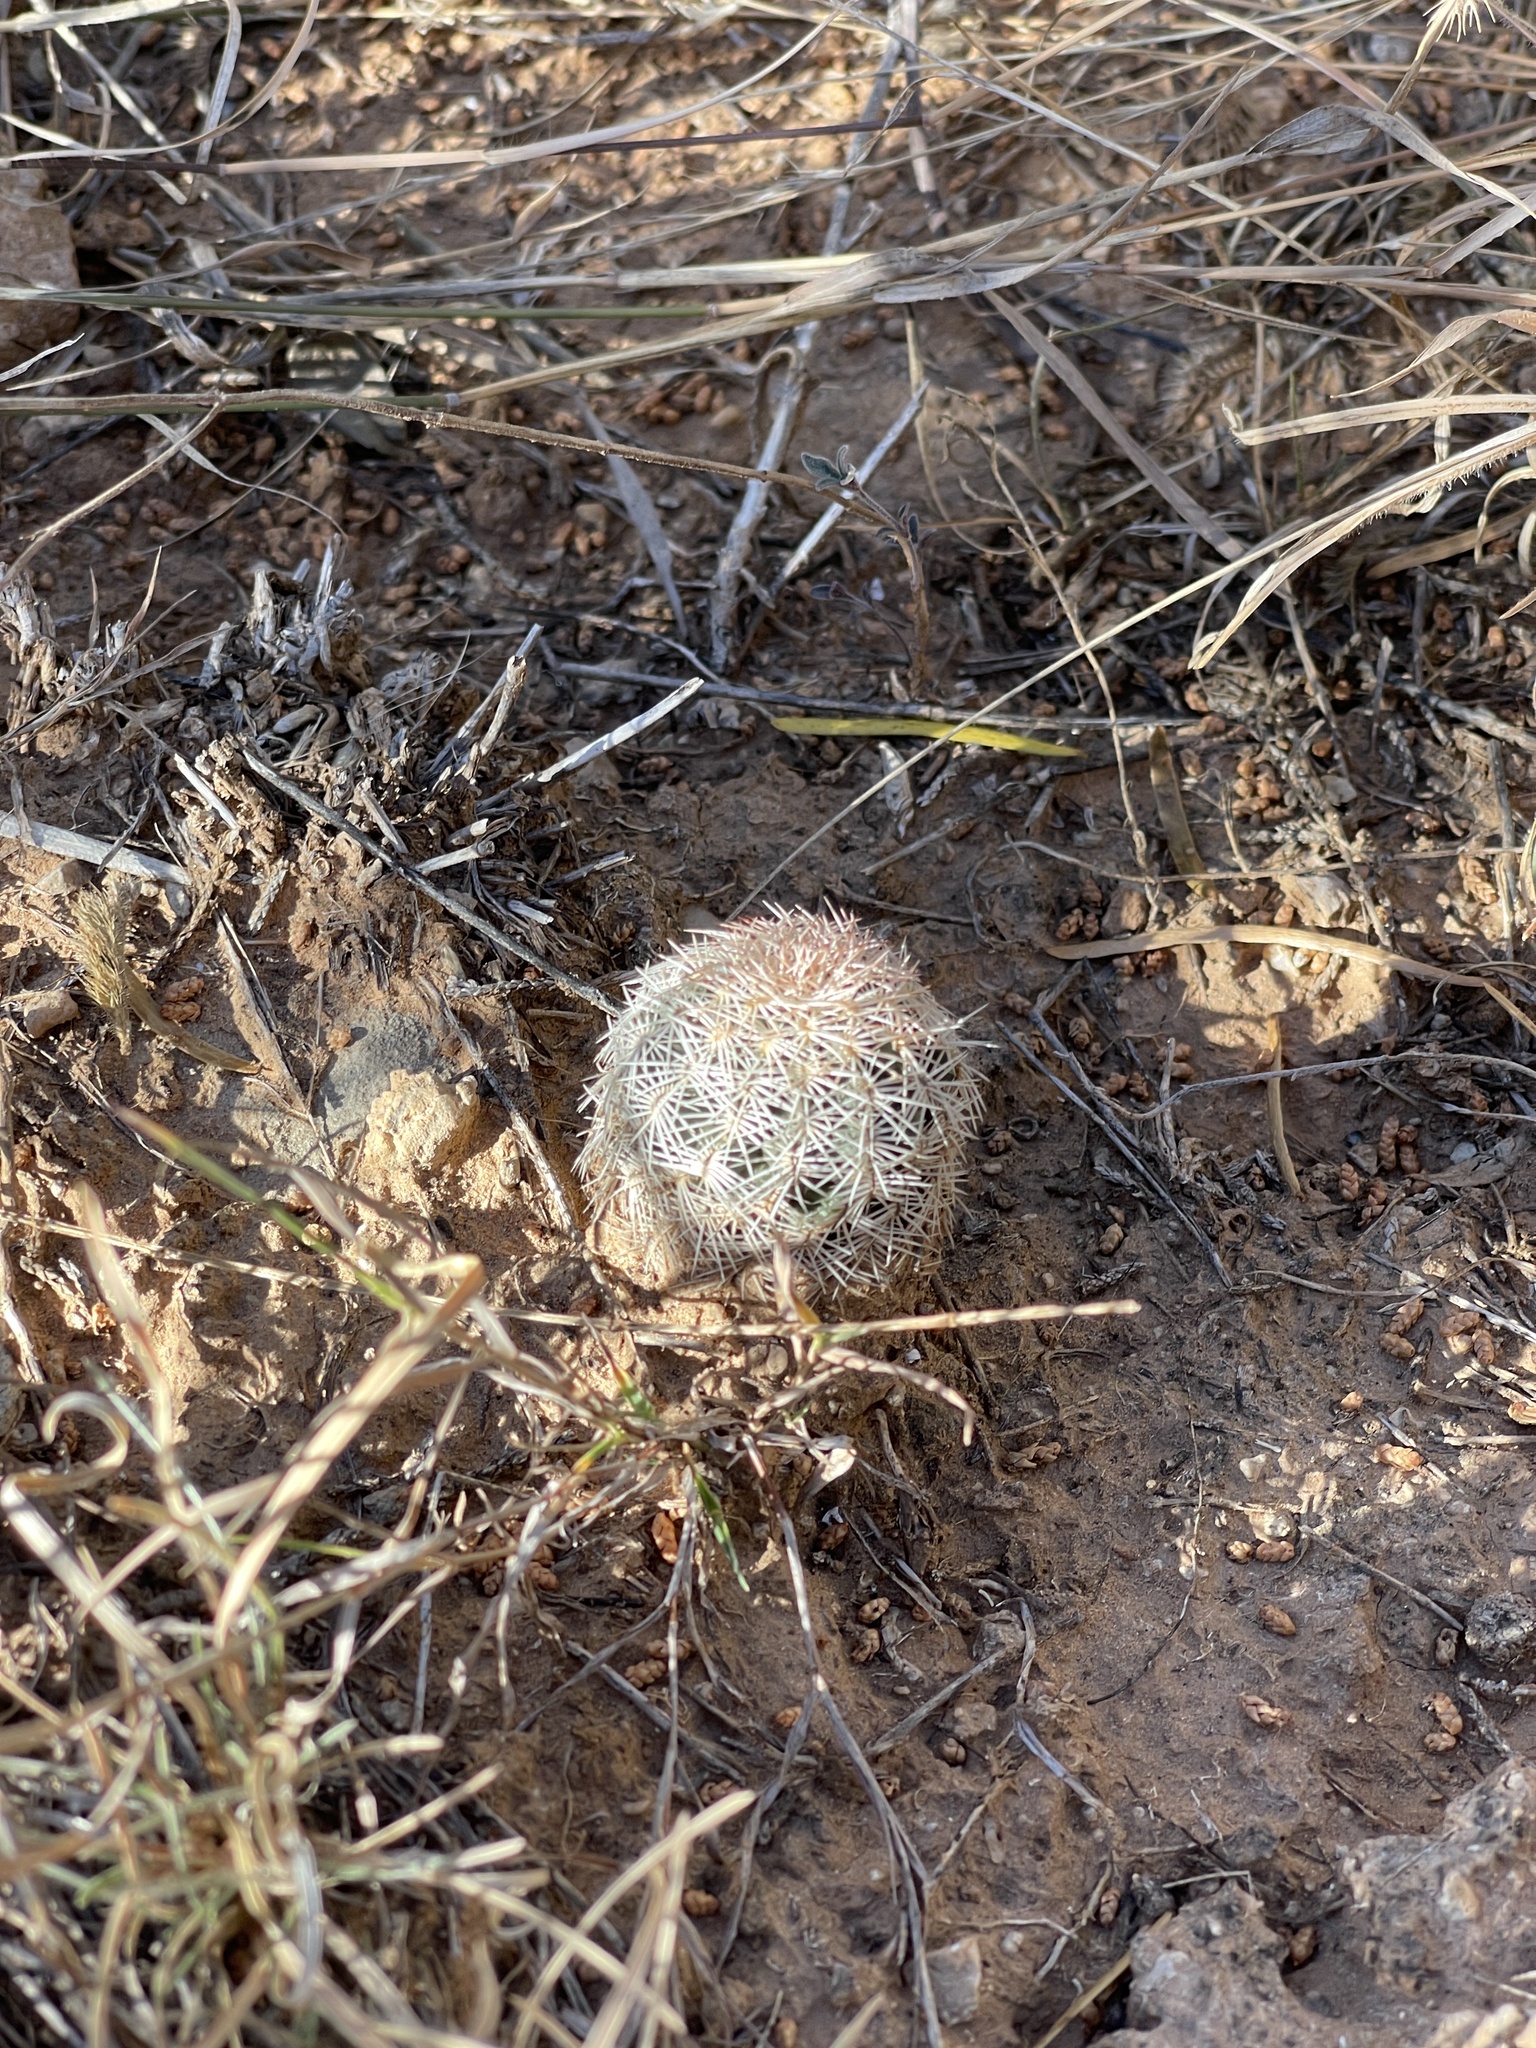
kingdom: Plantae
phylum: Tracheophyta
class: Magnoliopsida
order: Caryophyllales
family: Cactaceae
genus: Echinocereus
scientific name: Echinocereus reichenbachii
